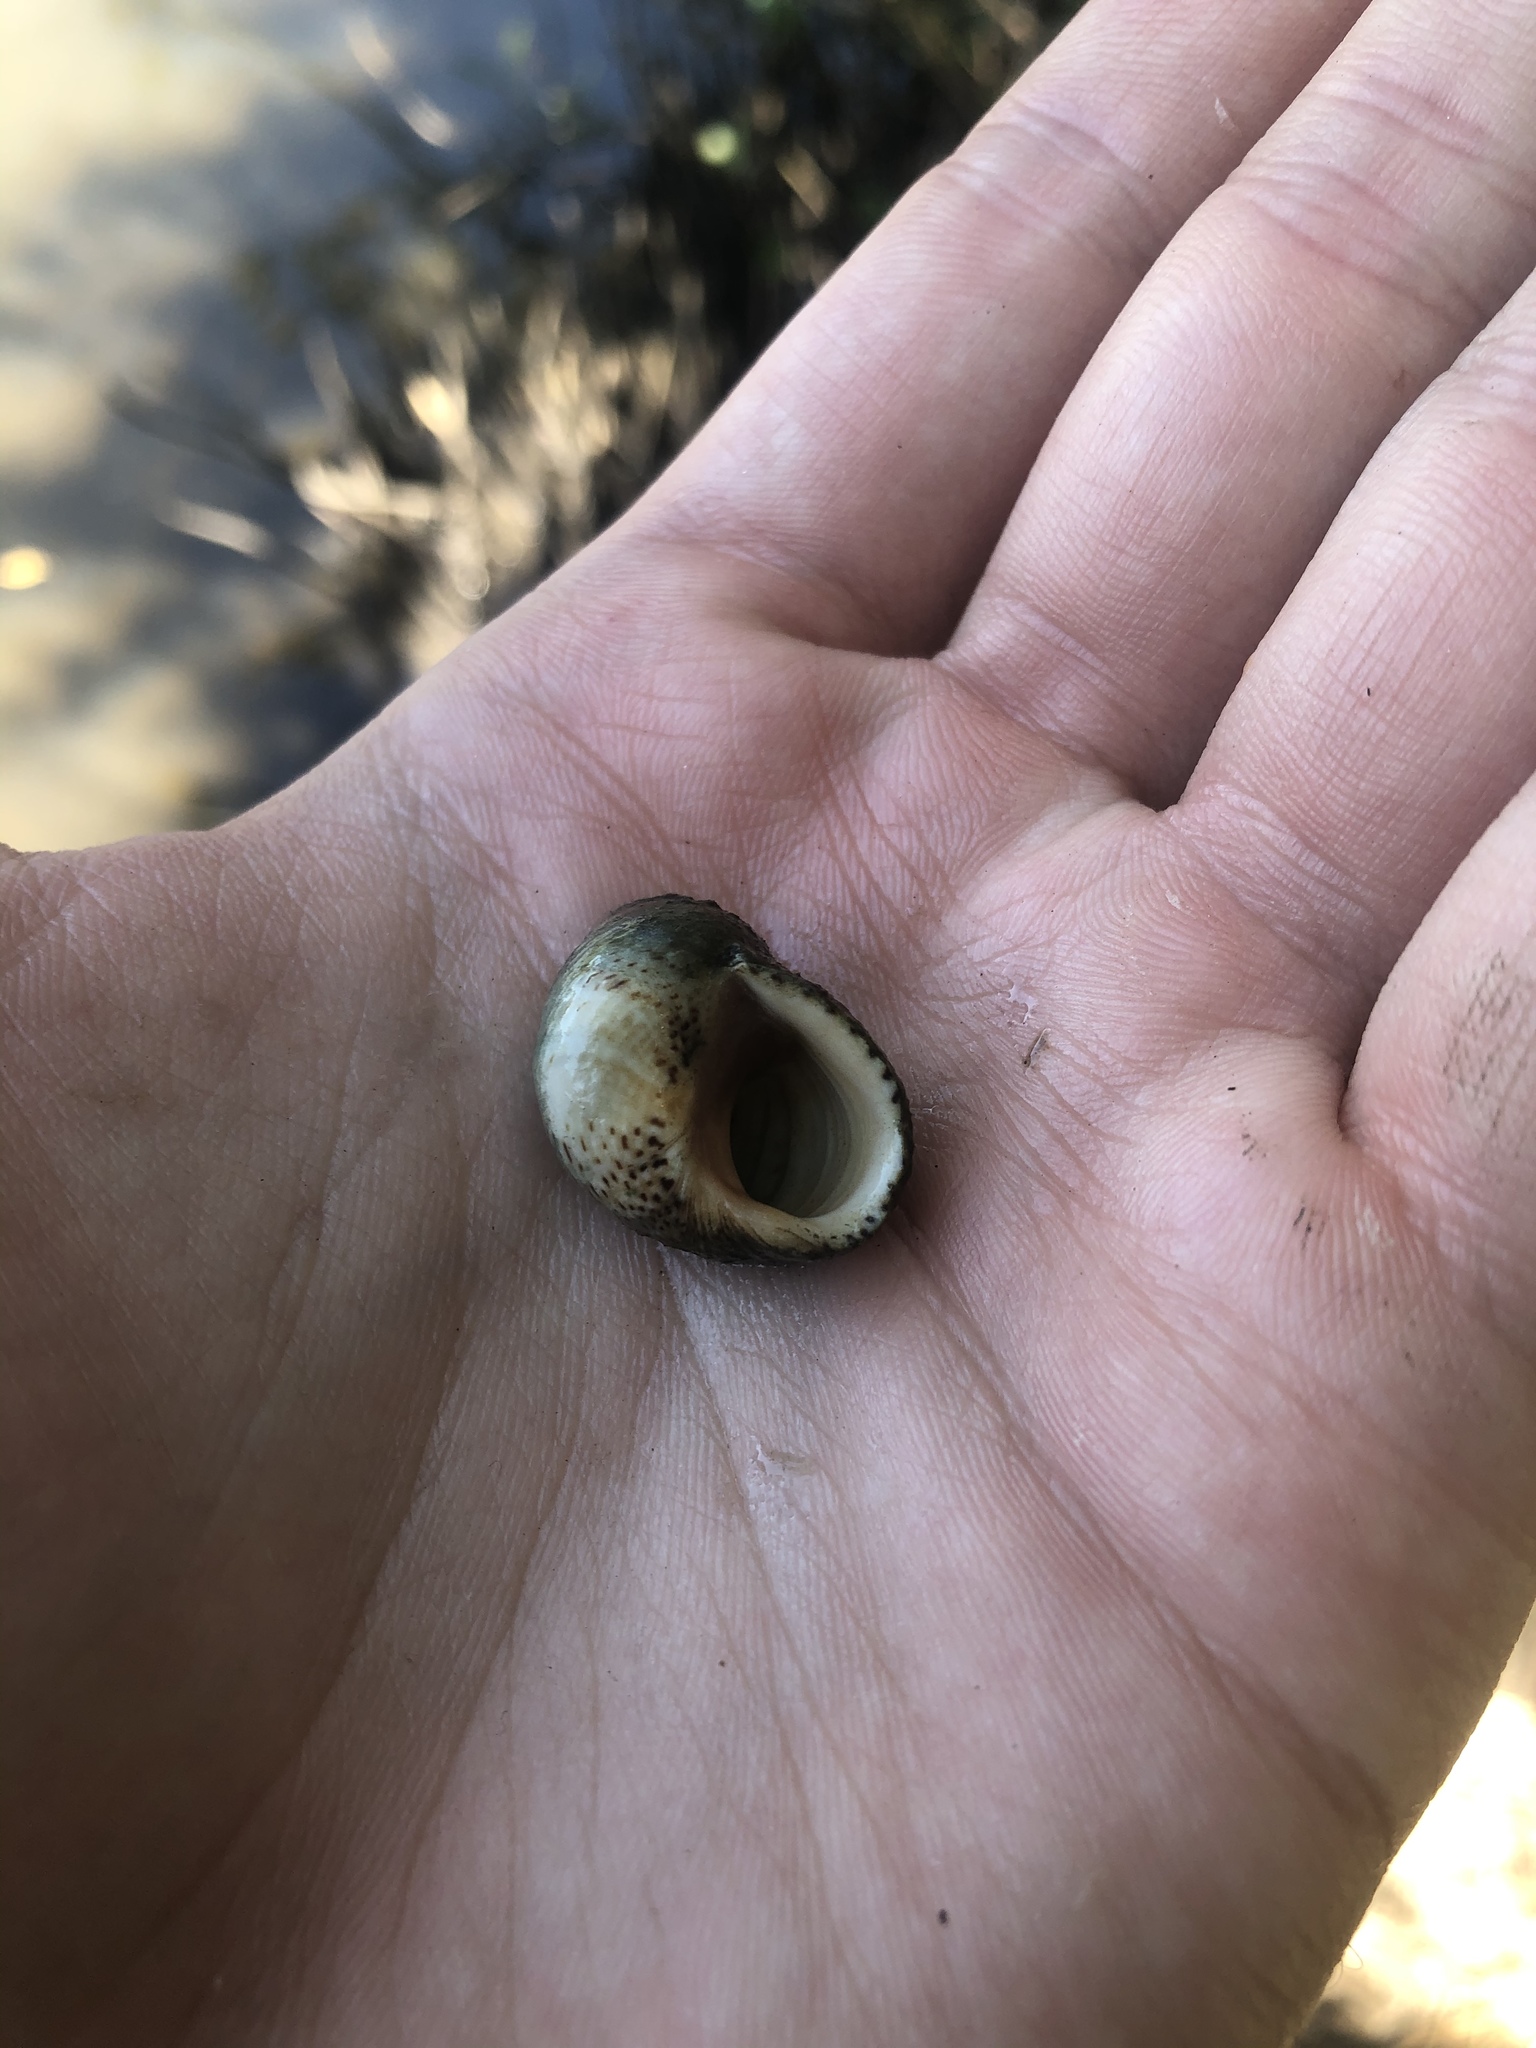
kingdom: Animalia
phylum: Mollusca
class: Gastropoda
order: Littorinimorpha
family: Littorinidae
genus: Littoraria
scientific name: Littoraria irrorata
